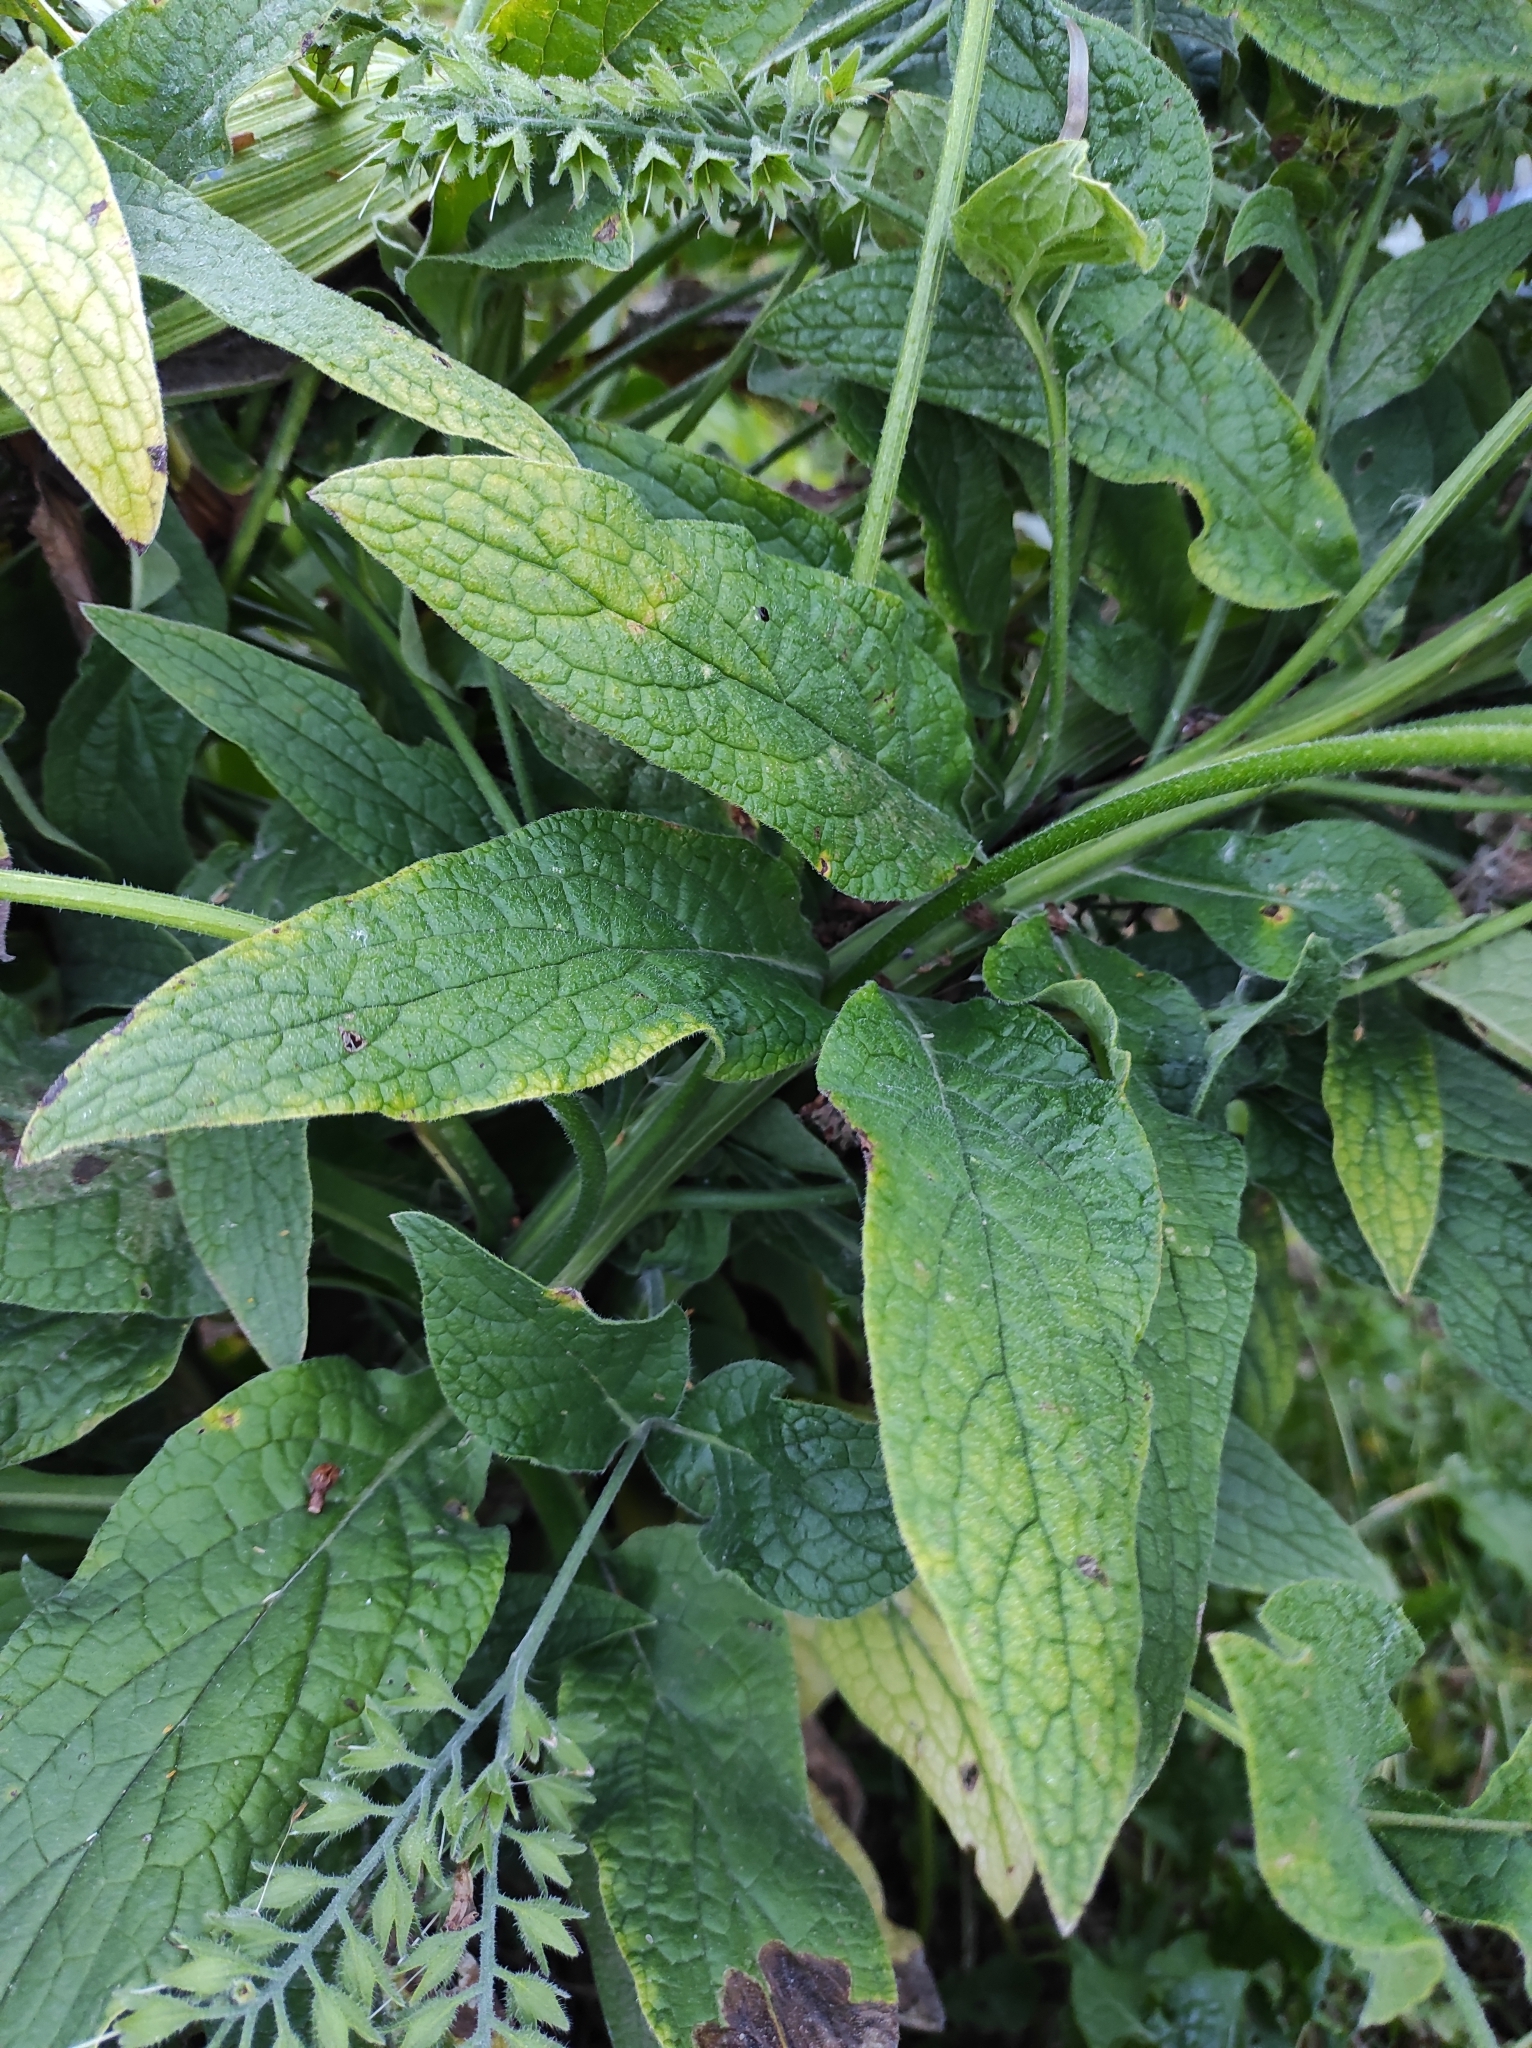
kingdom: Plantae
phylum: Tracheophyta
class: Magnoliopsida
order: Boraginales
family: Boraginaceae
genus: Symphytum
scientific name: Symphytum caucasicum
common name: Caucasian comfrey
